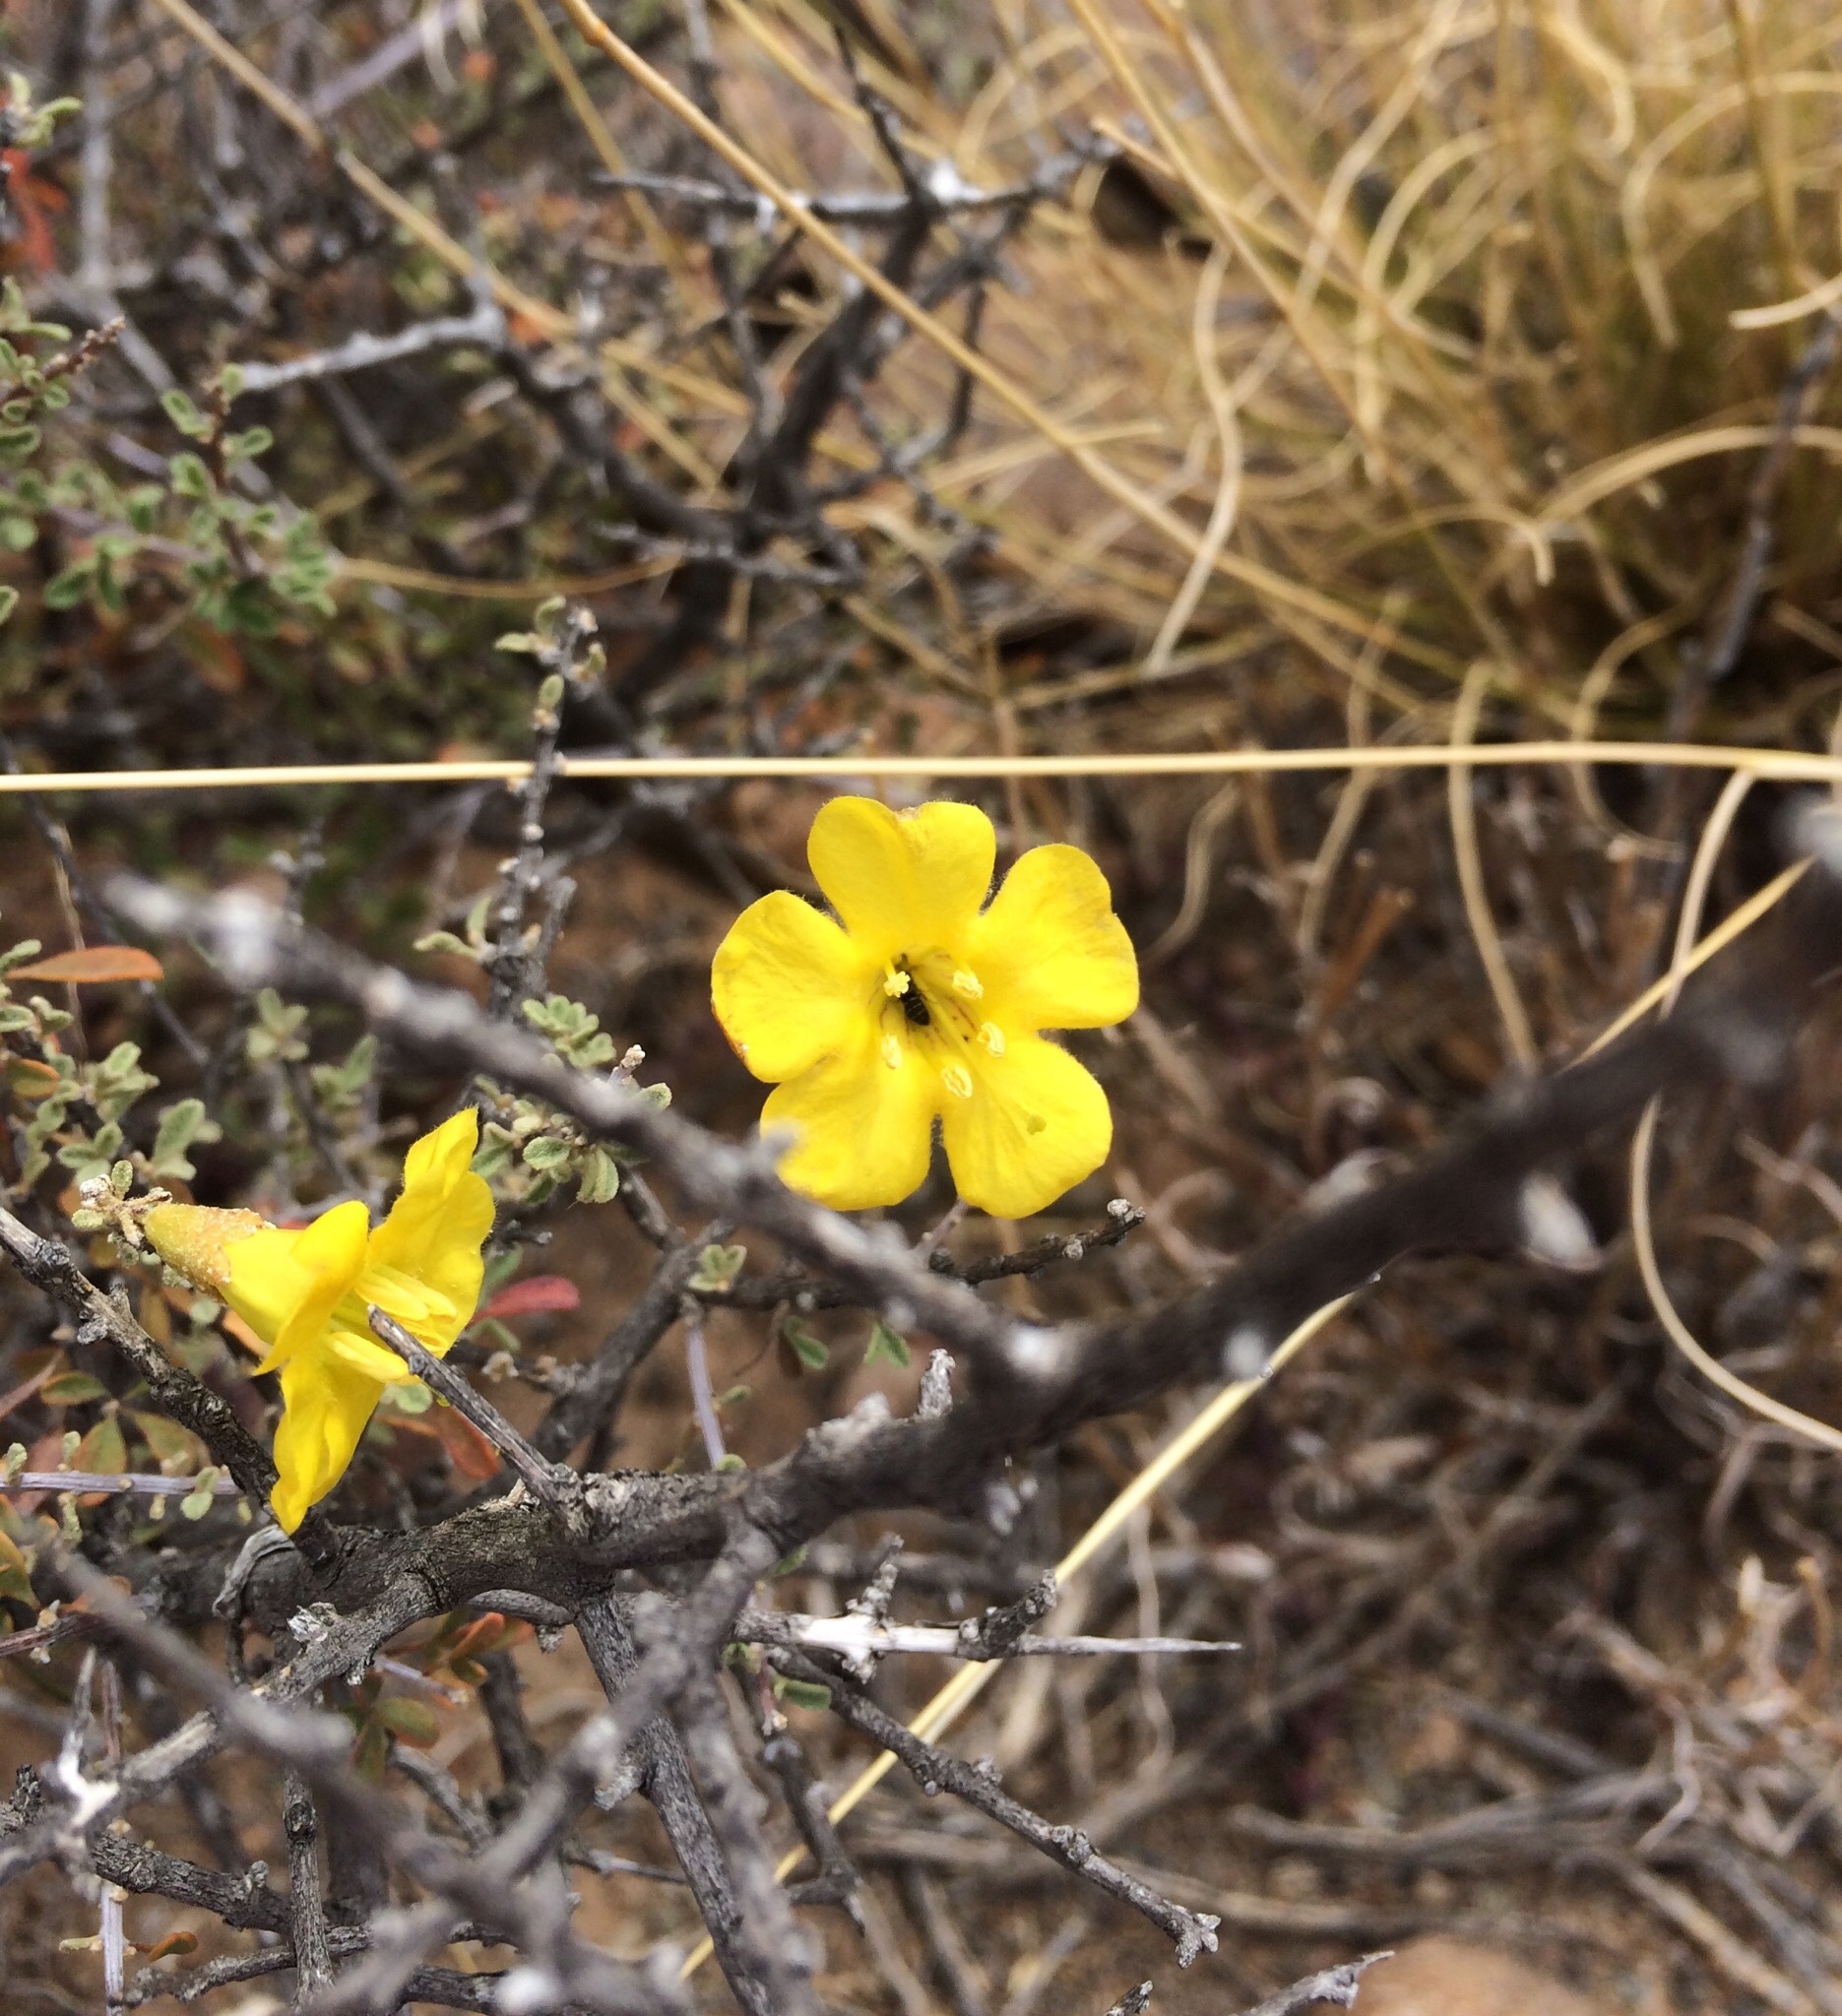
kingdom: Plantae
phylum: Tracheophyta
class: Magnoliopsida
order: Lamiales
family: Bignoniaceae
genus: Rhigozum
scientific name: Rhigozum obovatum
